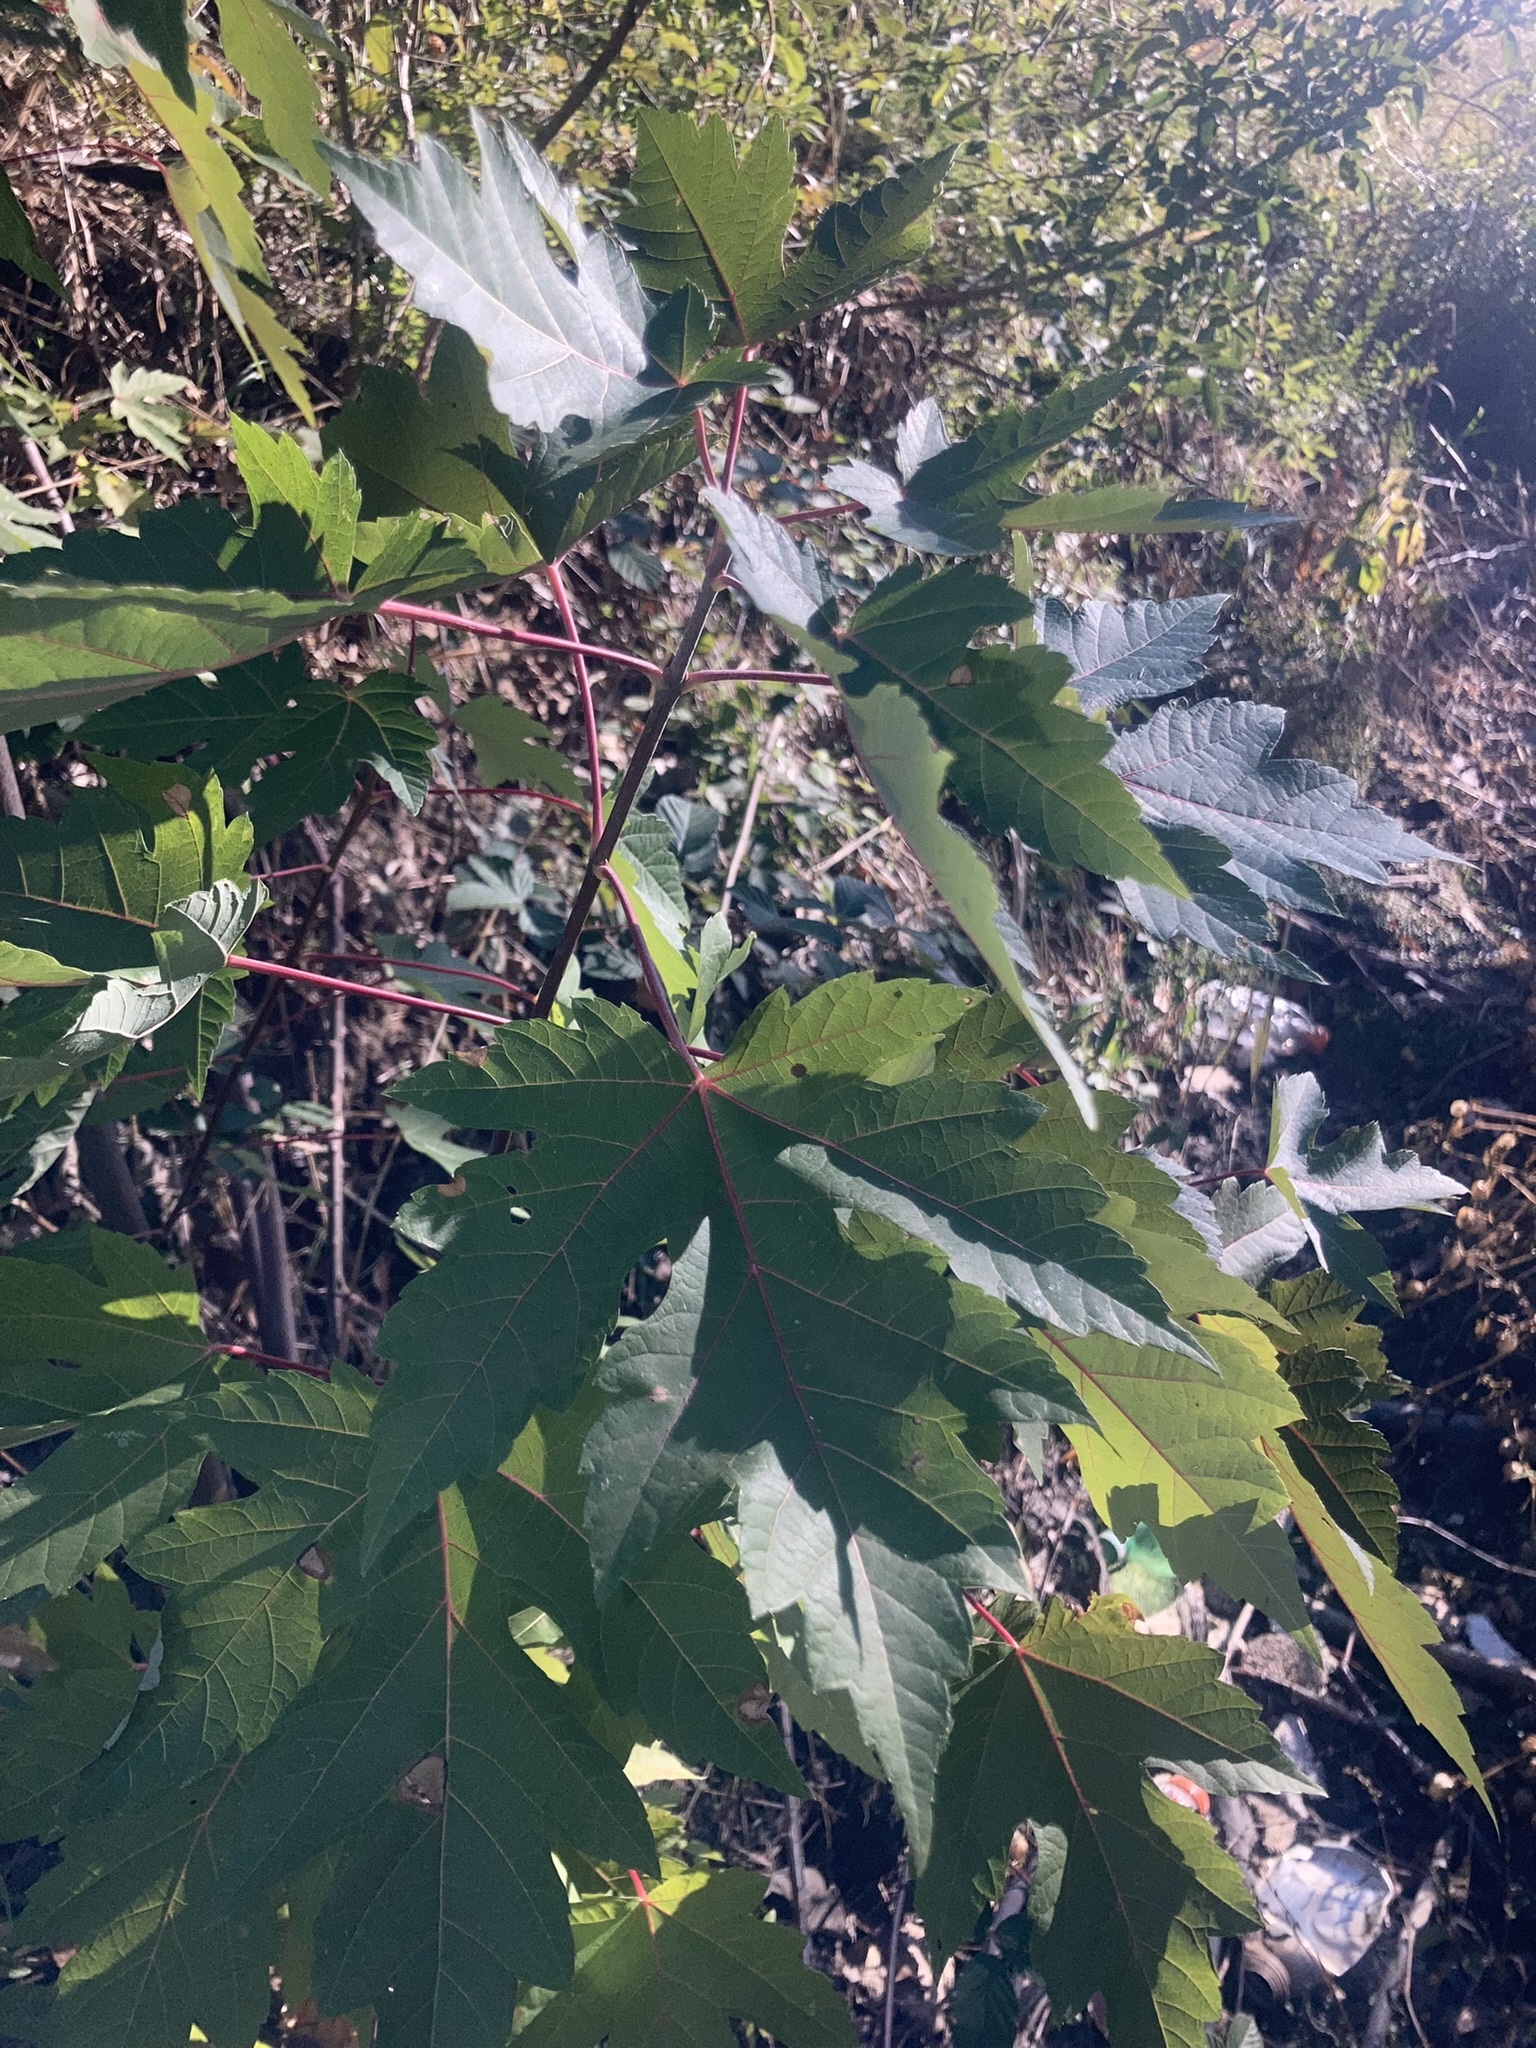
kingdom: Plantae
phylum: Tracheophyta
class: Magnoliopsida
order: Sapindales
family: Sapindaceae
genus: Acer
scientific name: Acer saccharinum
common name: Silver maple
